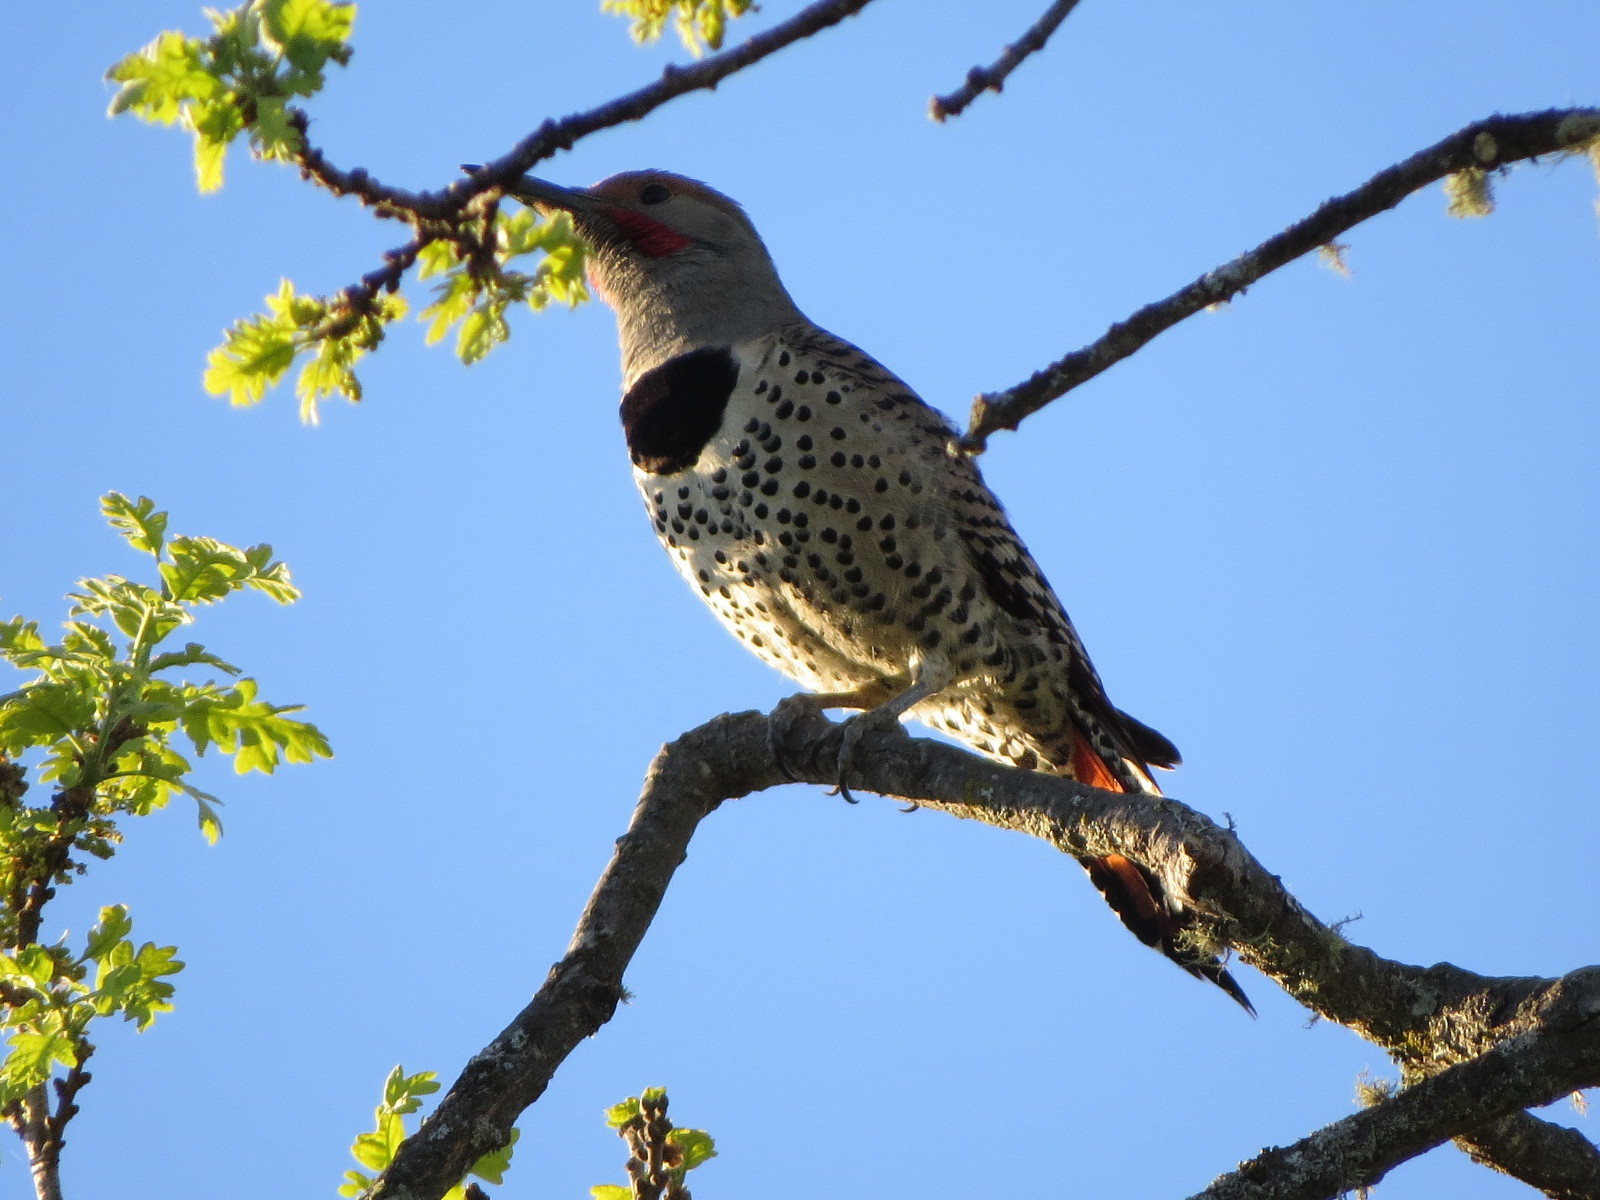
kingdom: Animalia
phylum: Chordata
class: Aves
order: Piciformes
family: Picidae
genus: Colaptes
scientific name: Colaptes auratus
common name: Northern flicker
